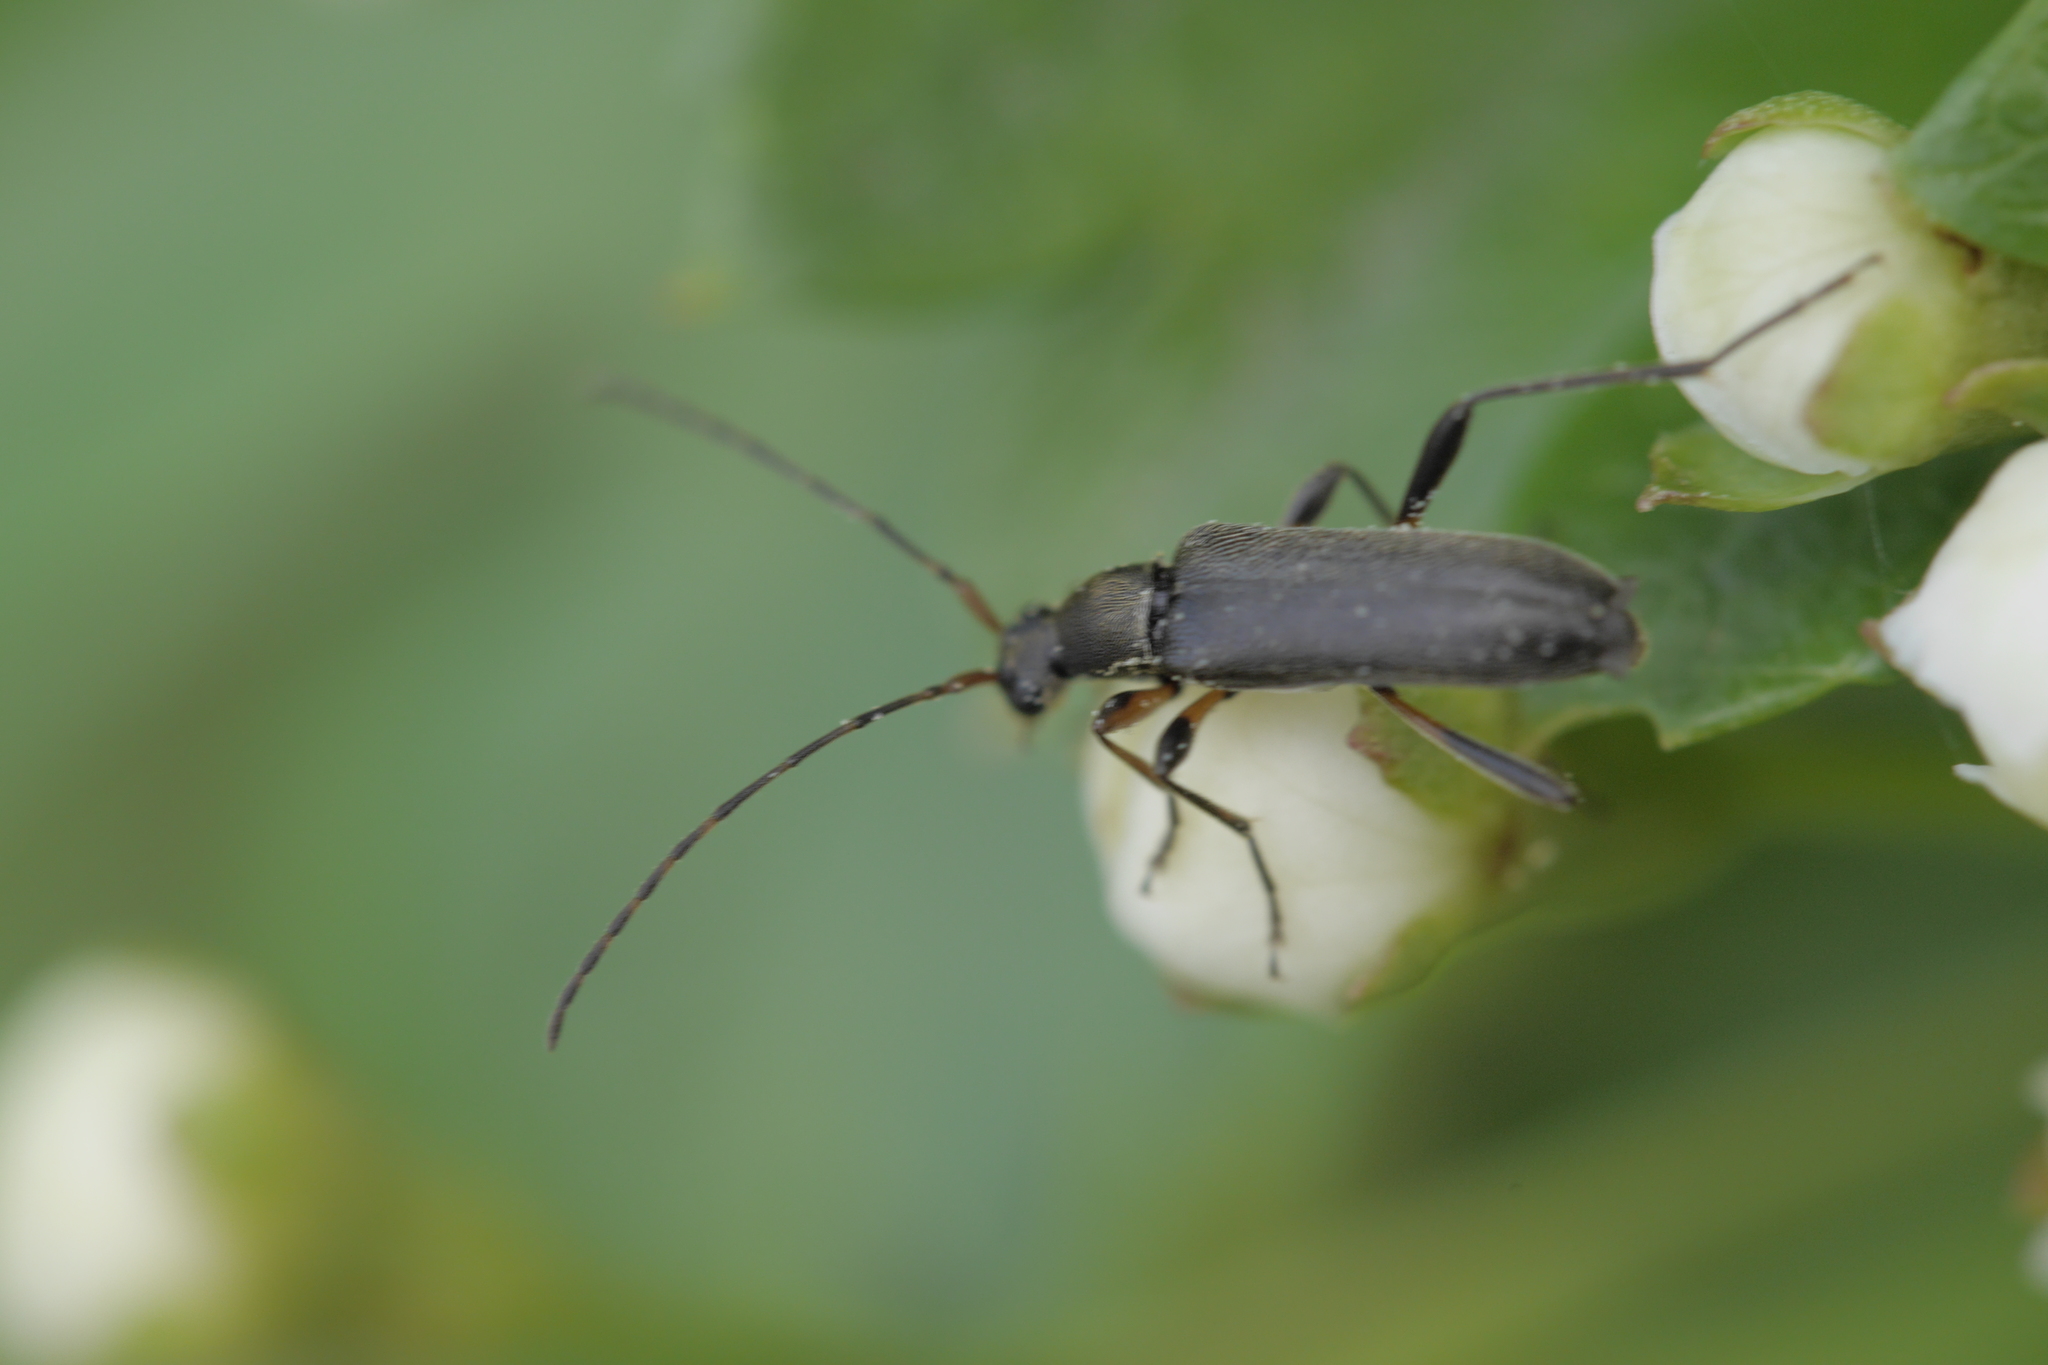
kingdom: Animalia
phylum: Arthropoda
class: Insecta
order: Coleoptera
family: Cerambycidae
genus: Grammoptera
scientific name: Grammoptera ruficornis
